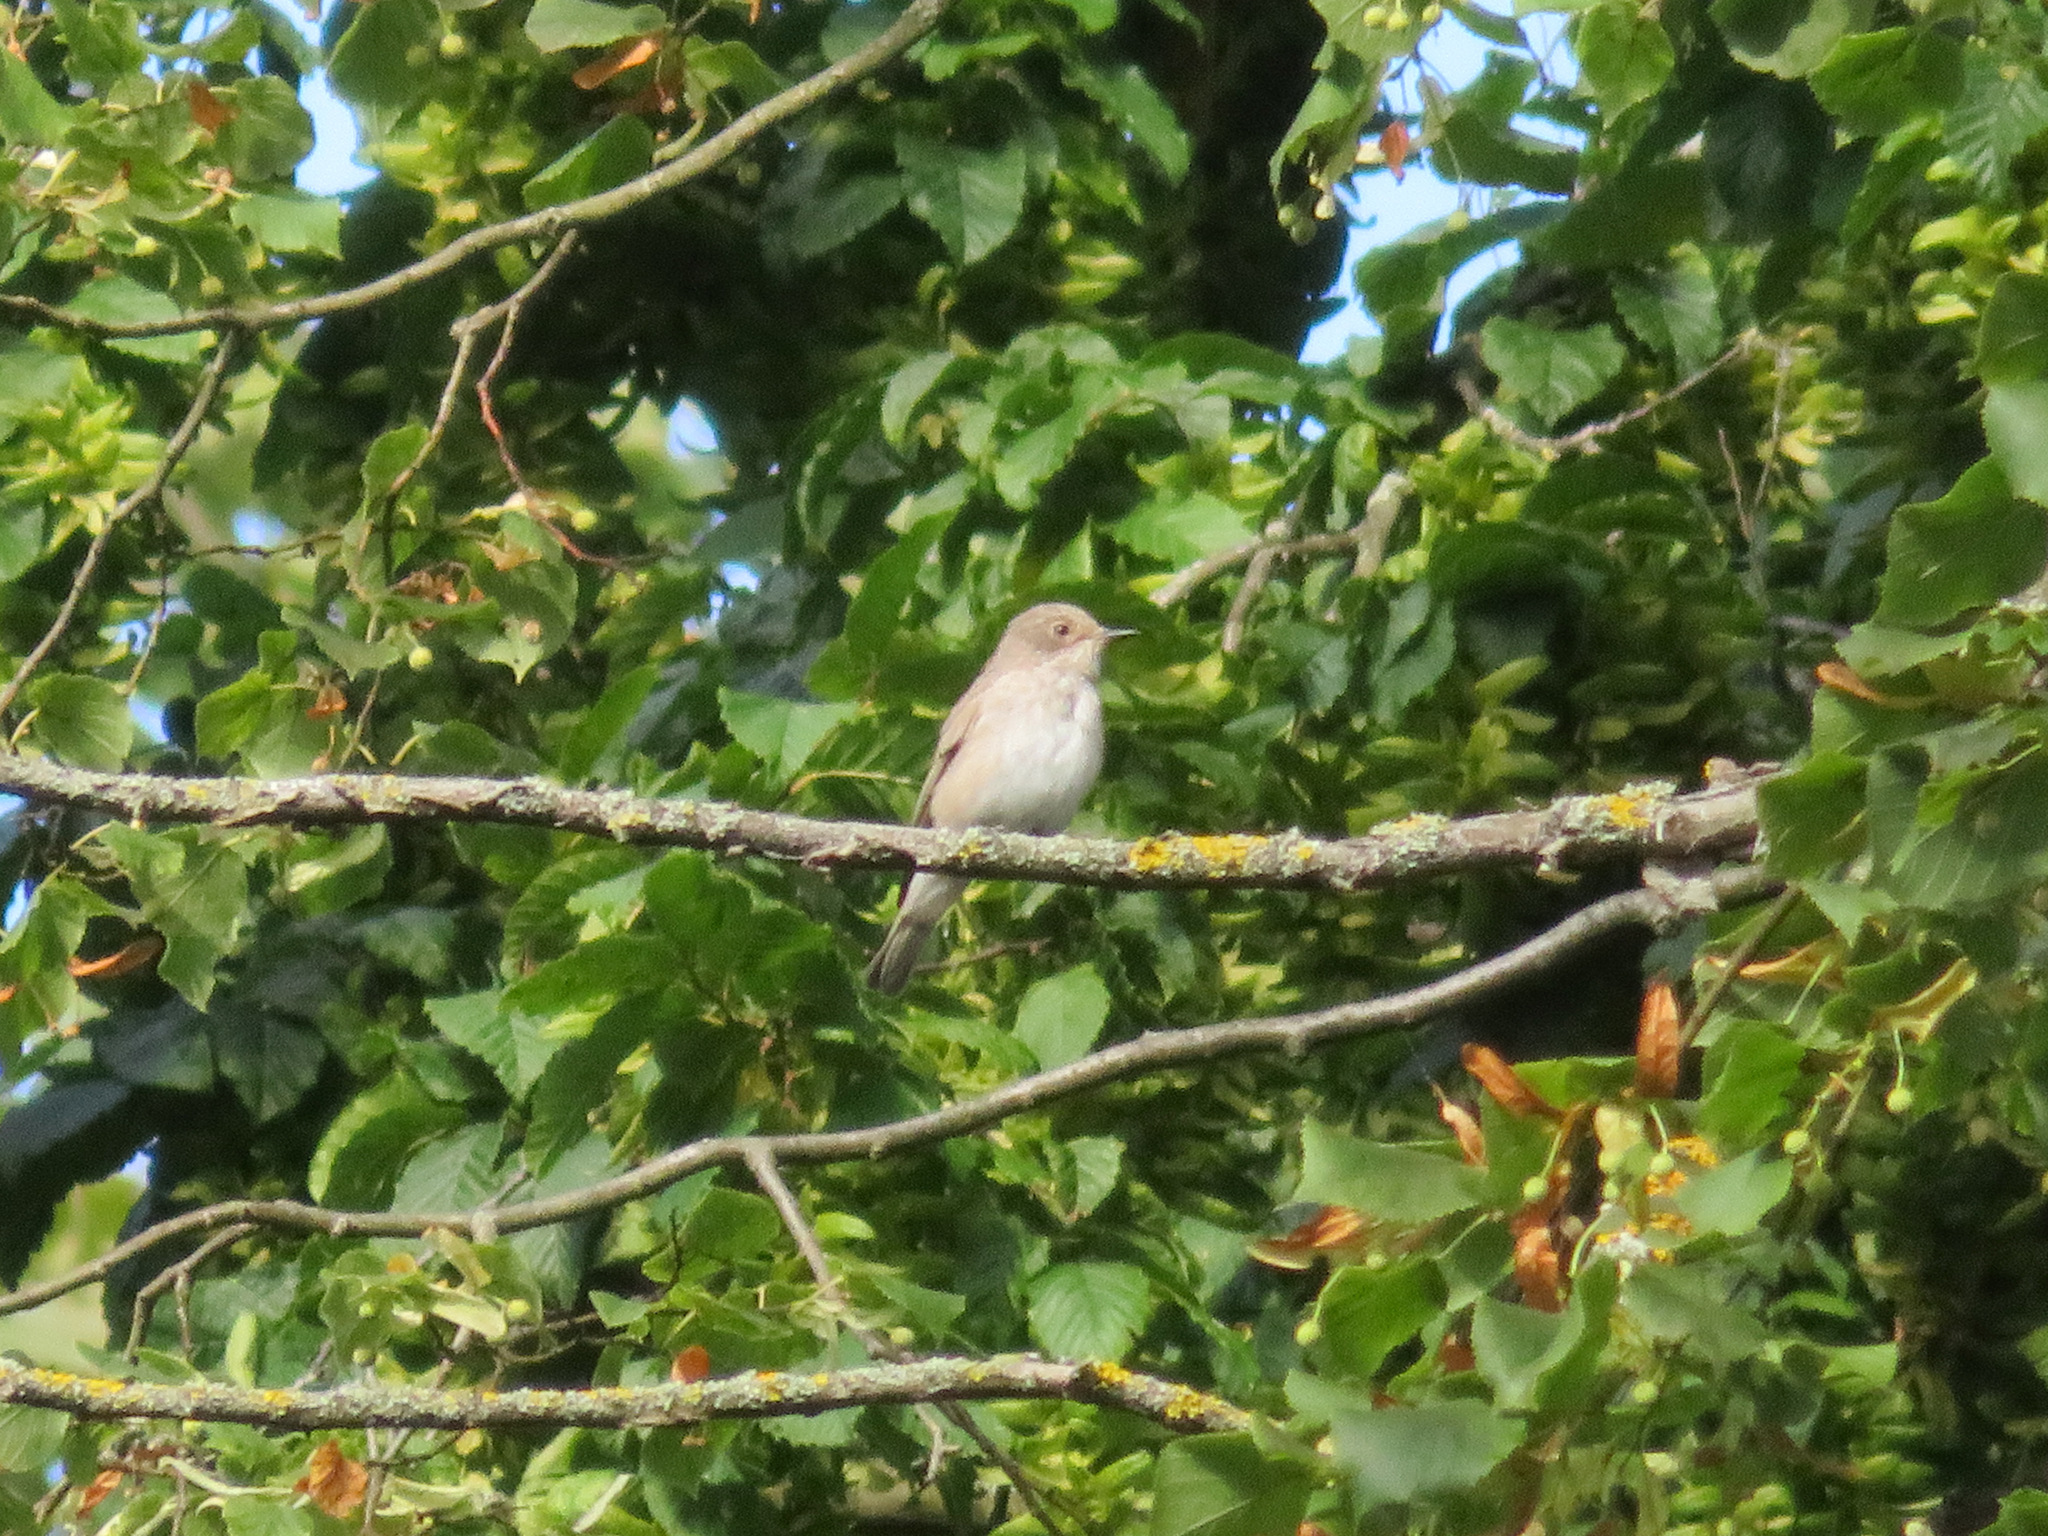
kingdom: Animalia
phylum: Chordata
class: Aves
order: Passeriformes
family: Muscicapidae
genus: Muscicapa
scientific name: Muscicapa striata
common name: Spotted flycatcher
